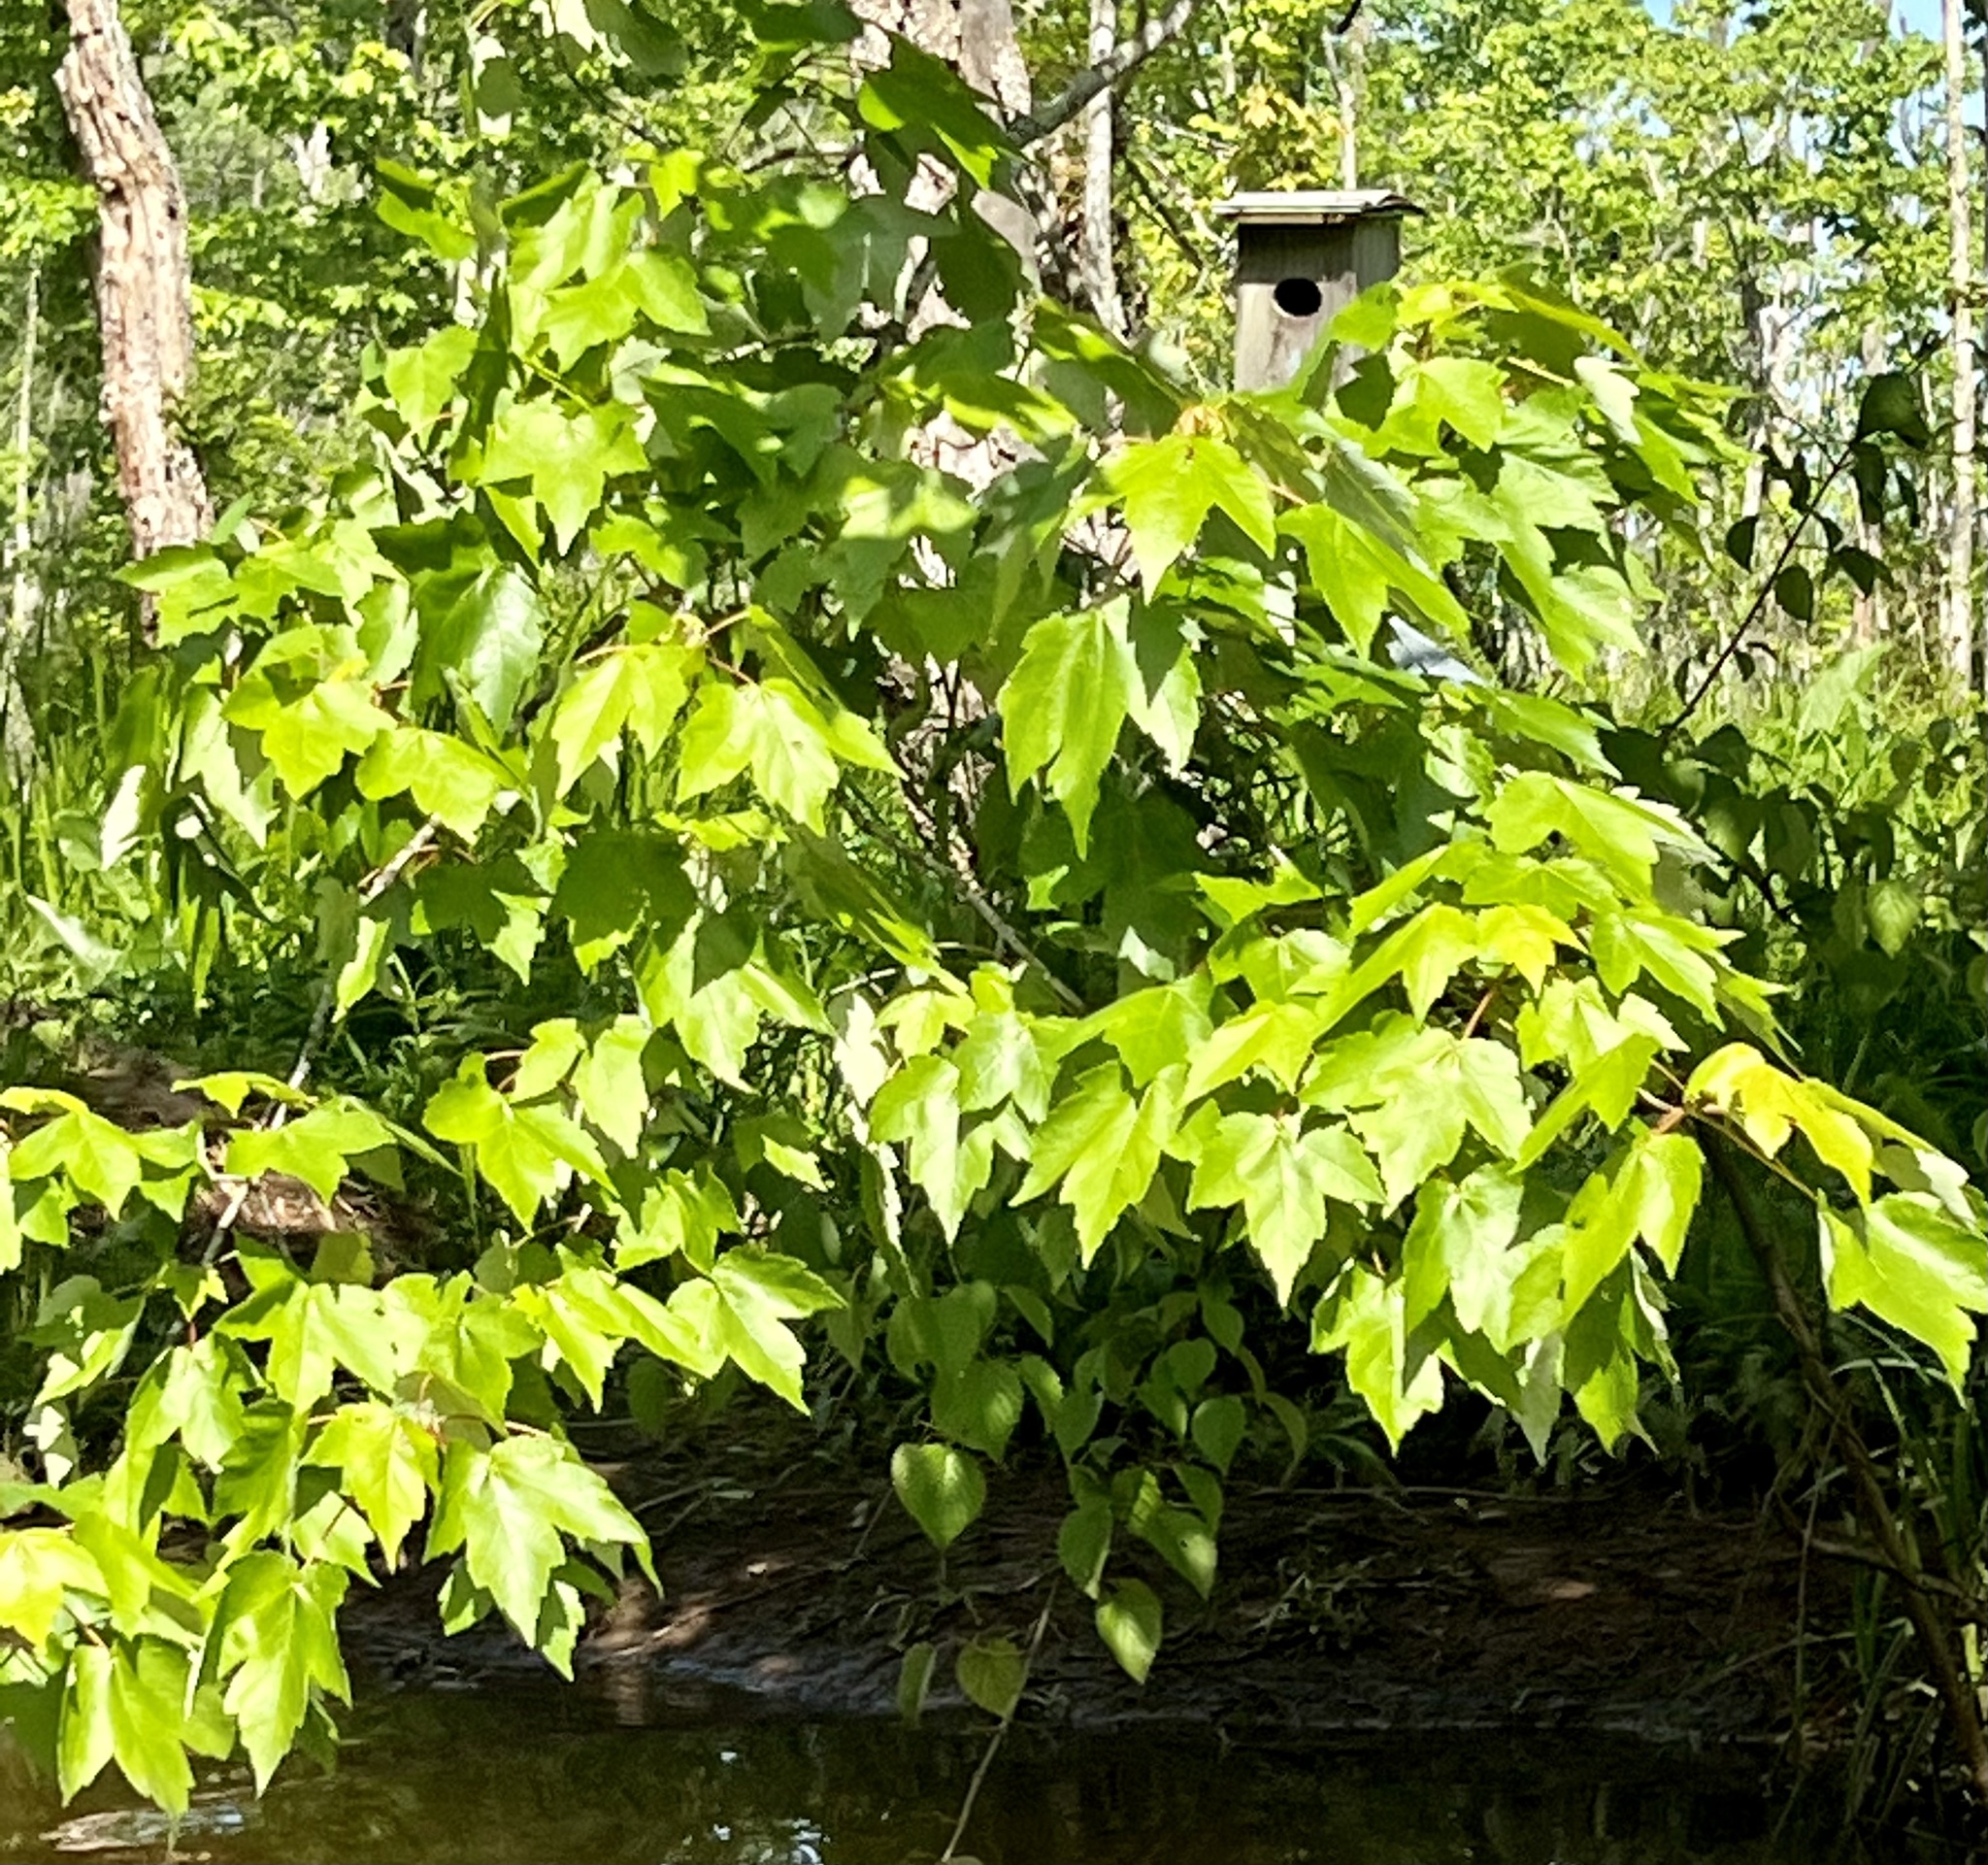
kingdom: Plantae
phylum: Tracheophyta
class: Magnoliopsida
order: Sapindales
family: Sapindaceae
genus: Acer
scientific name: Acer rubrum
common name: Red maple
